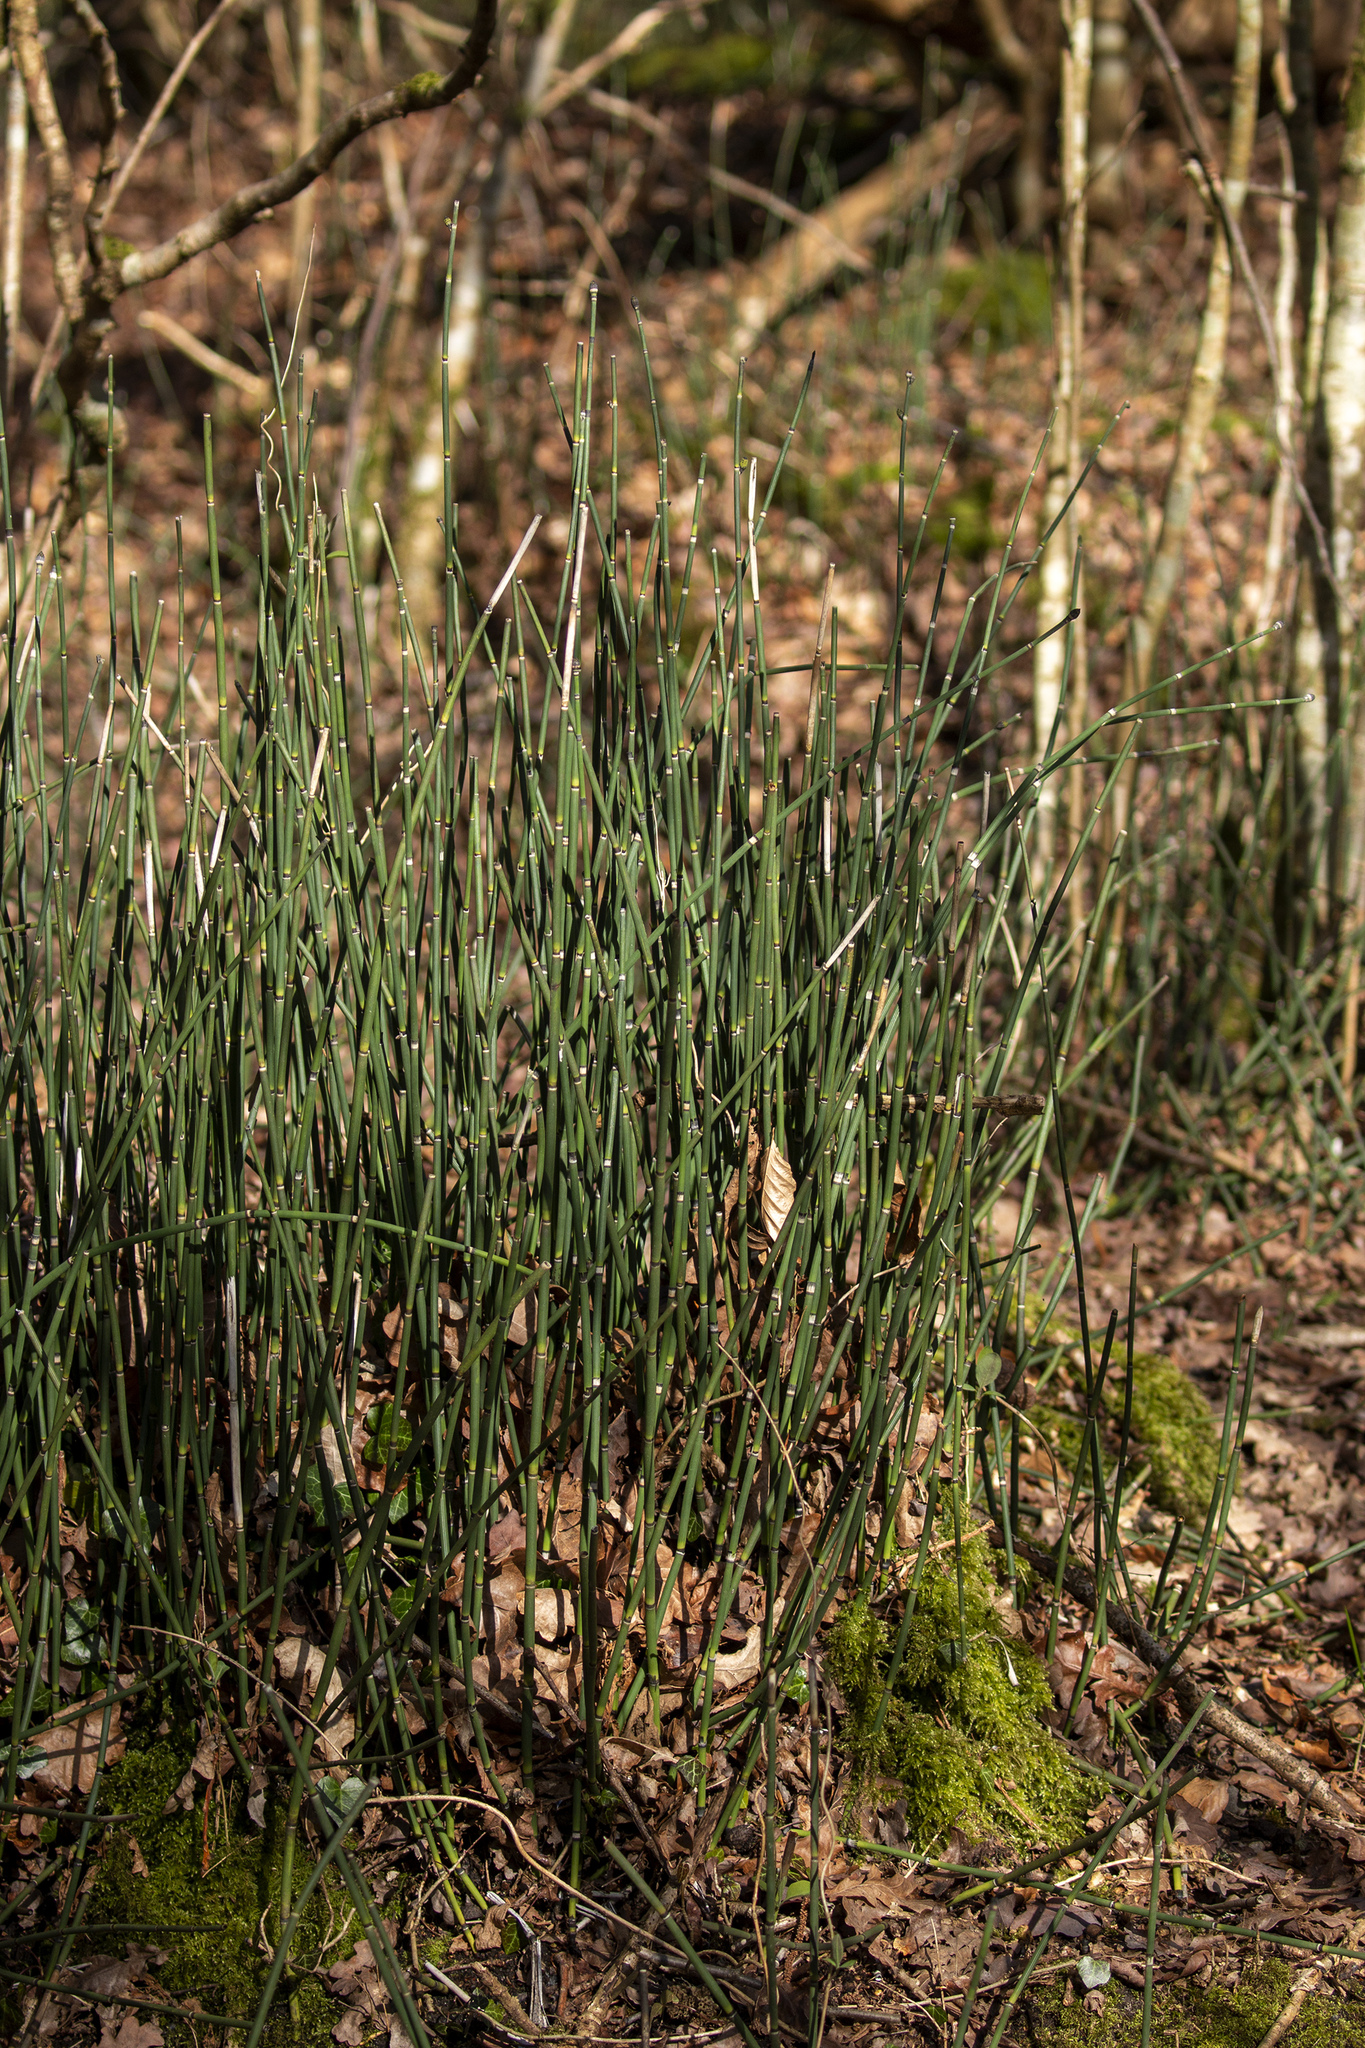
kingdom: Plantae
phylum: Tracheophyta
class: Polypodiopsida
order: Equisetales
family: Equisetaceae
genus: Equisetum
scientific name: Equisetum hyemale
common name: Rough horsetail
